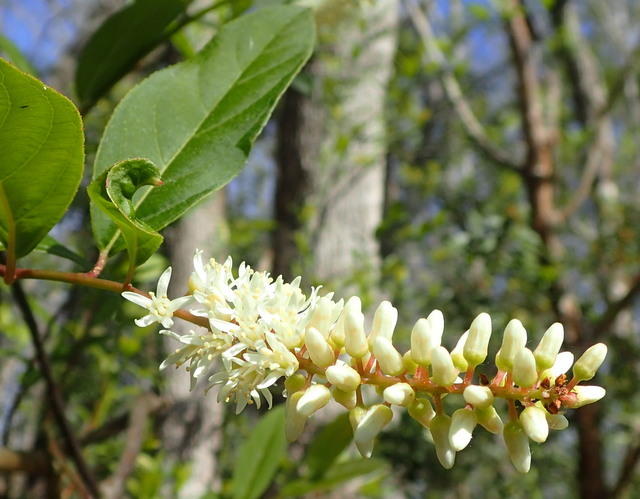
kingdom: Plantae
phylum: Tracheophyta
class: Magnoliopsida
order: Saxifragales
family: Iteaceae
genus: Itea
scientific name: Itea virginica
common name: Sweetspire
